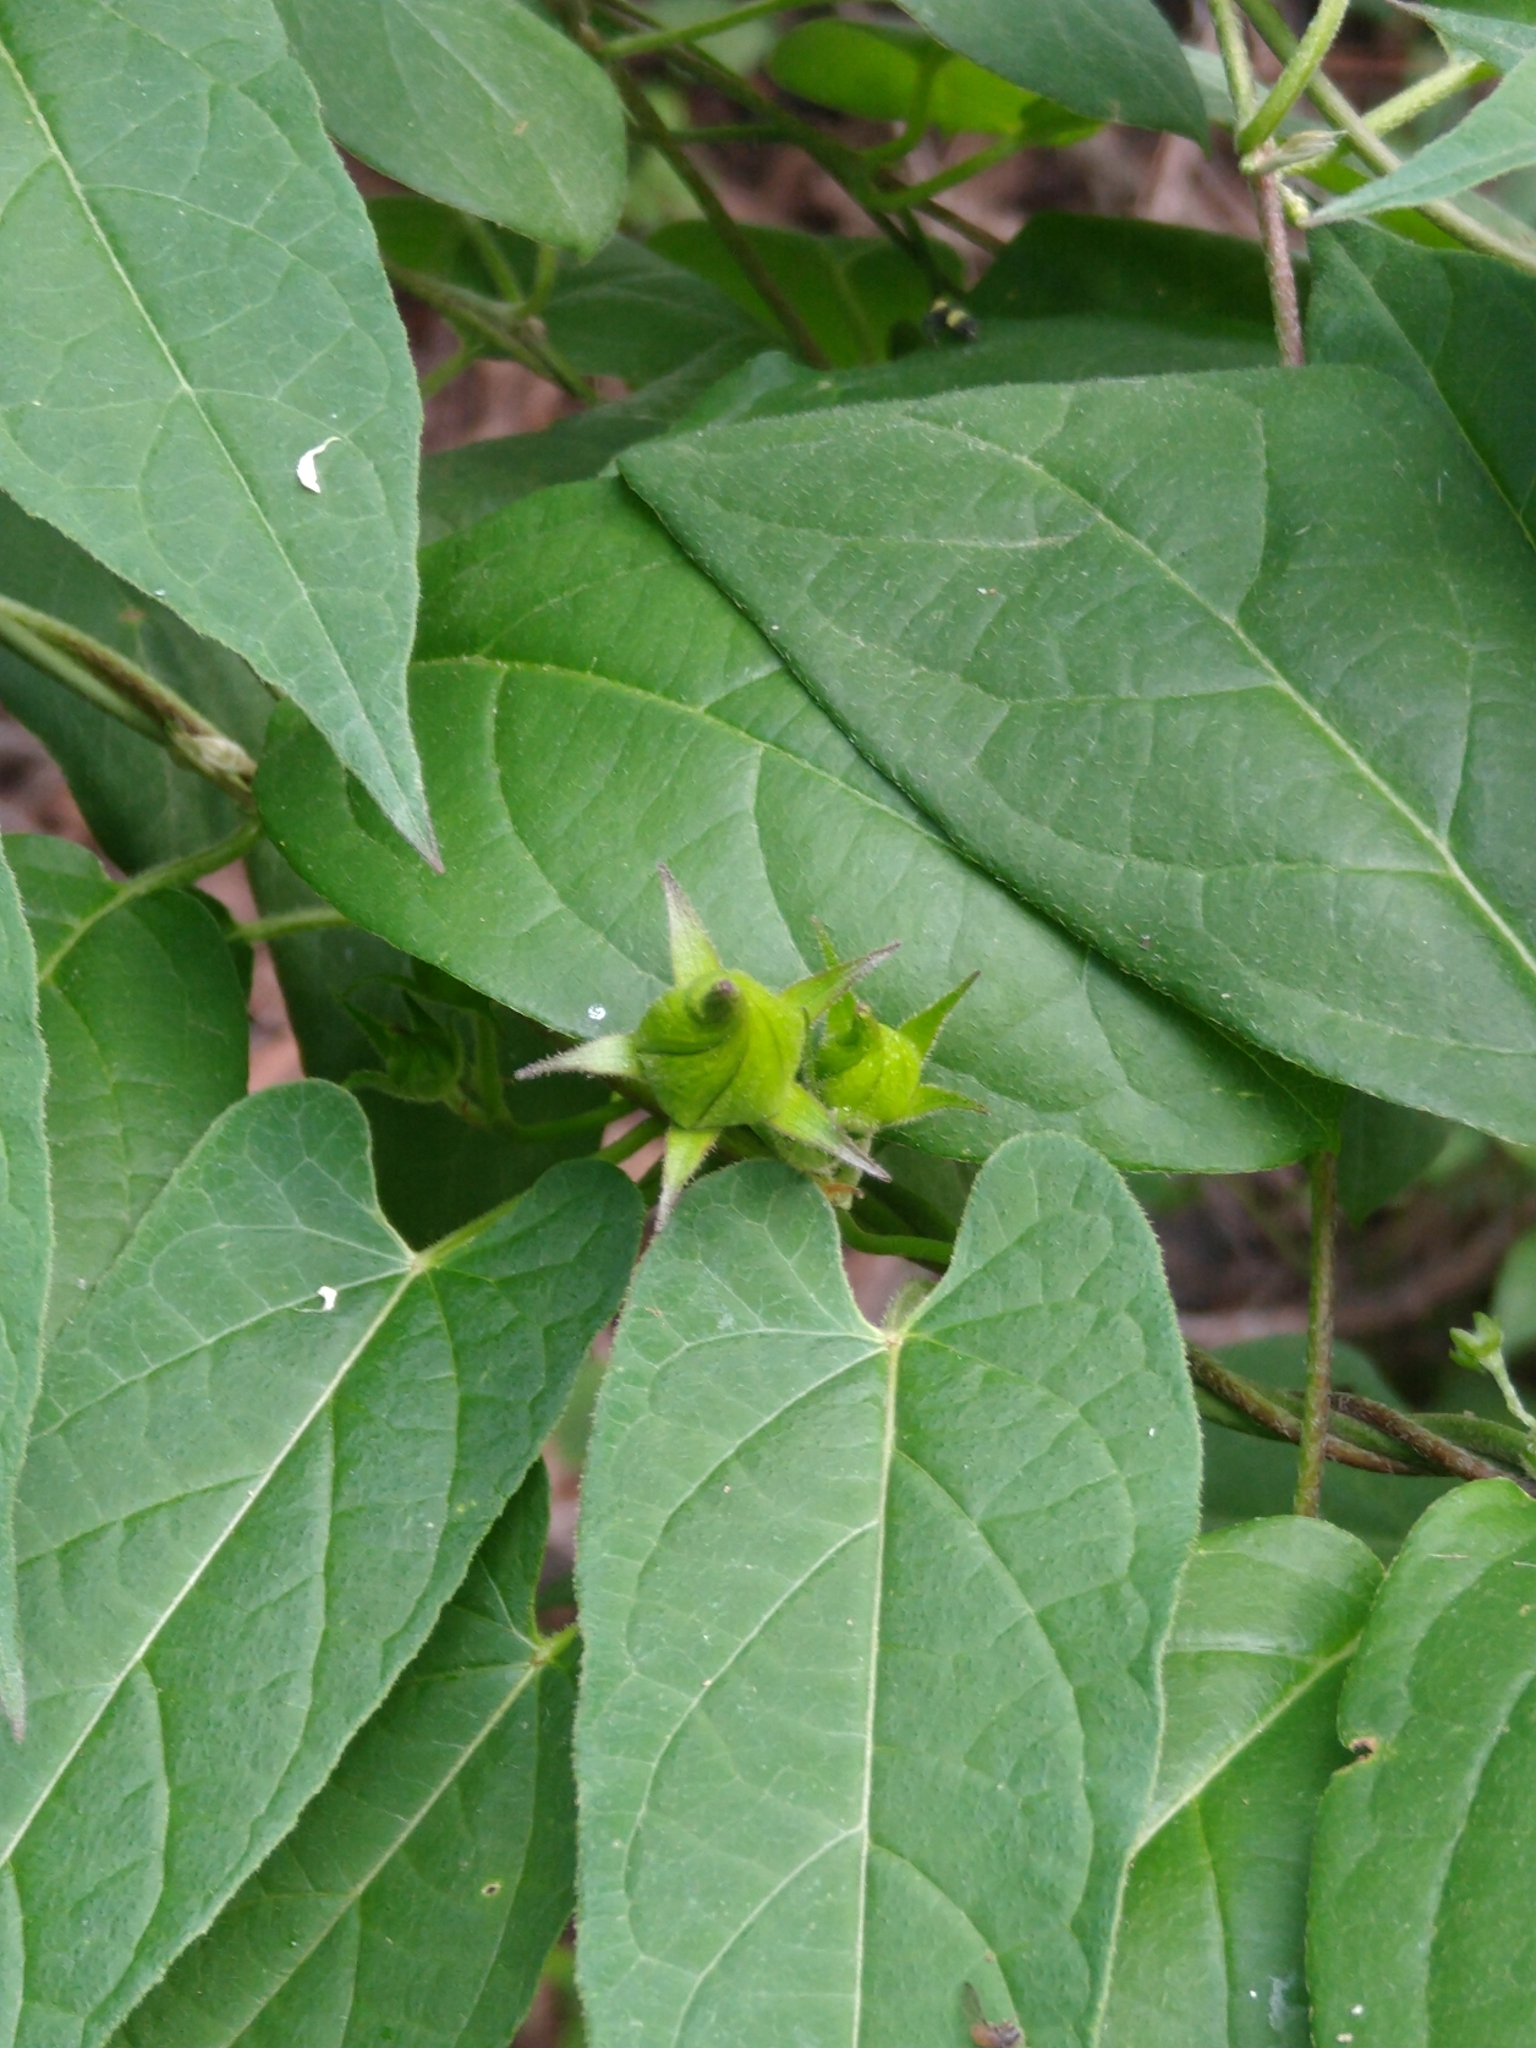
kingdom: Plantae
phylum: Tracheophyta
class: Magnoliopsida
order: Gentianales
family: Apocynaceae
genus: Gonolobus
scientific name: Gonolobus uniflorus
